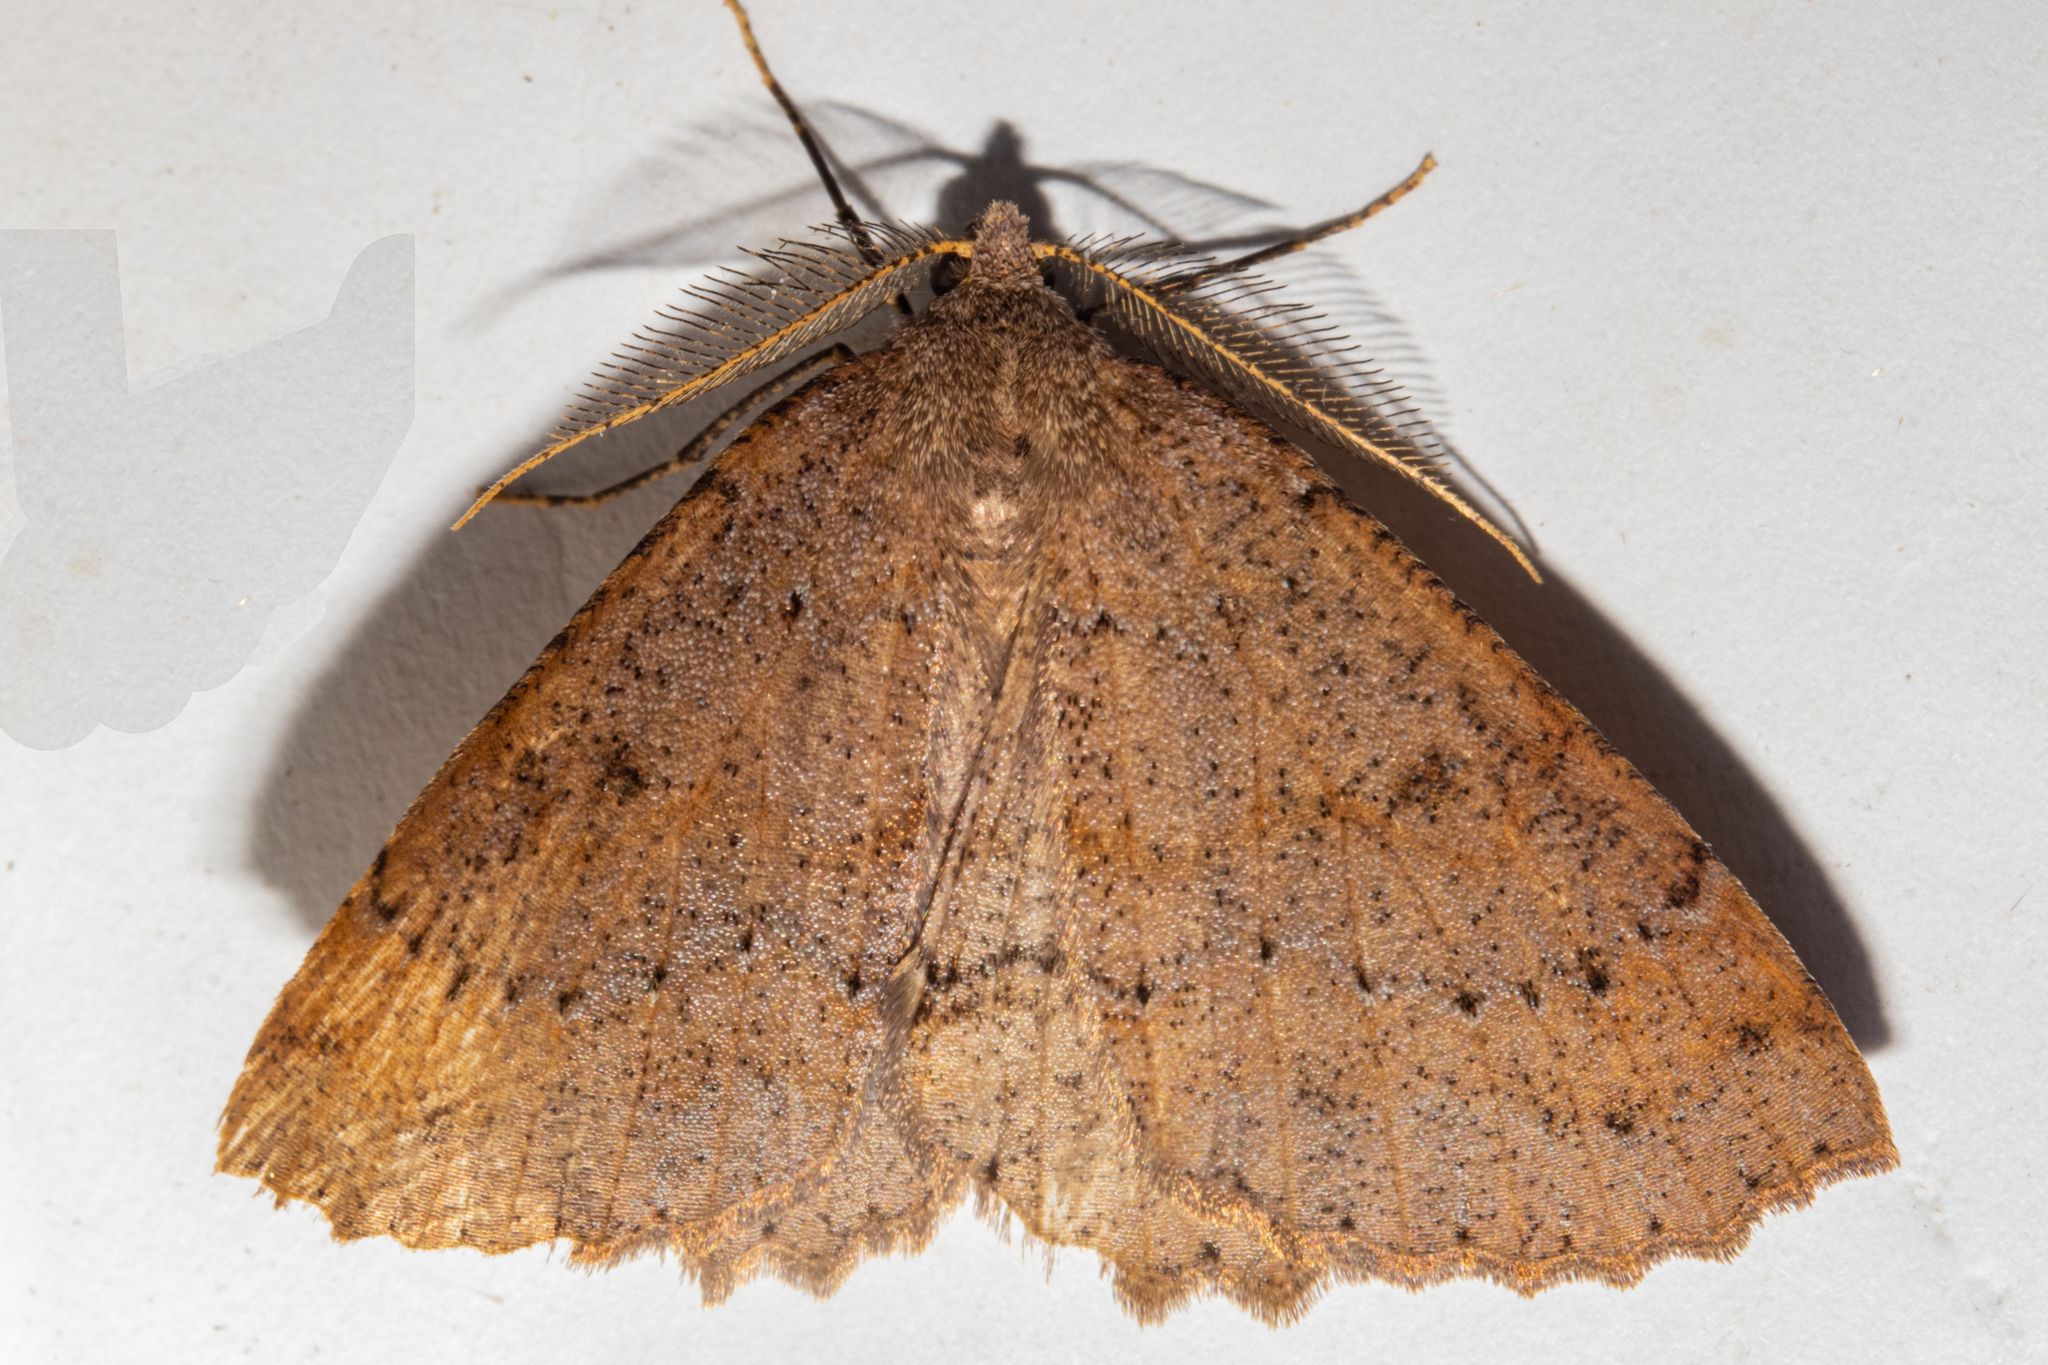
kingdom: Animalia
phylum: Arthropoda
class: Insecta
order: Lepidoptera
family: Geometridae
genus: Cleora
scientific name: Cleora scriptaria
